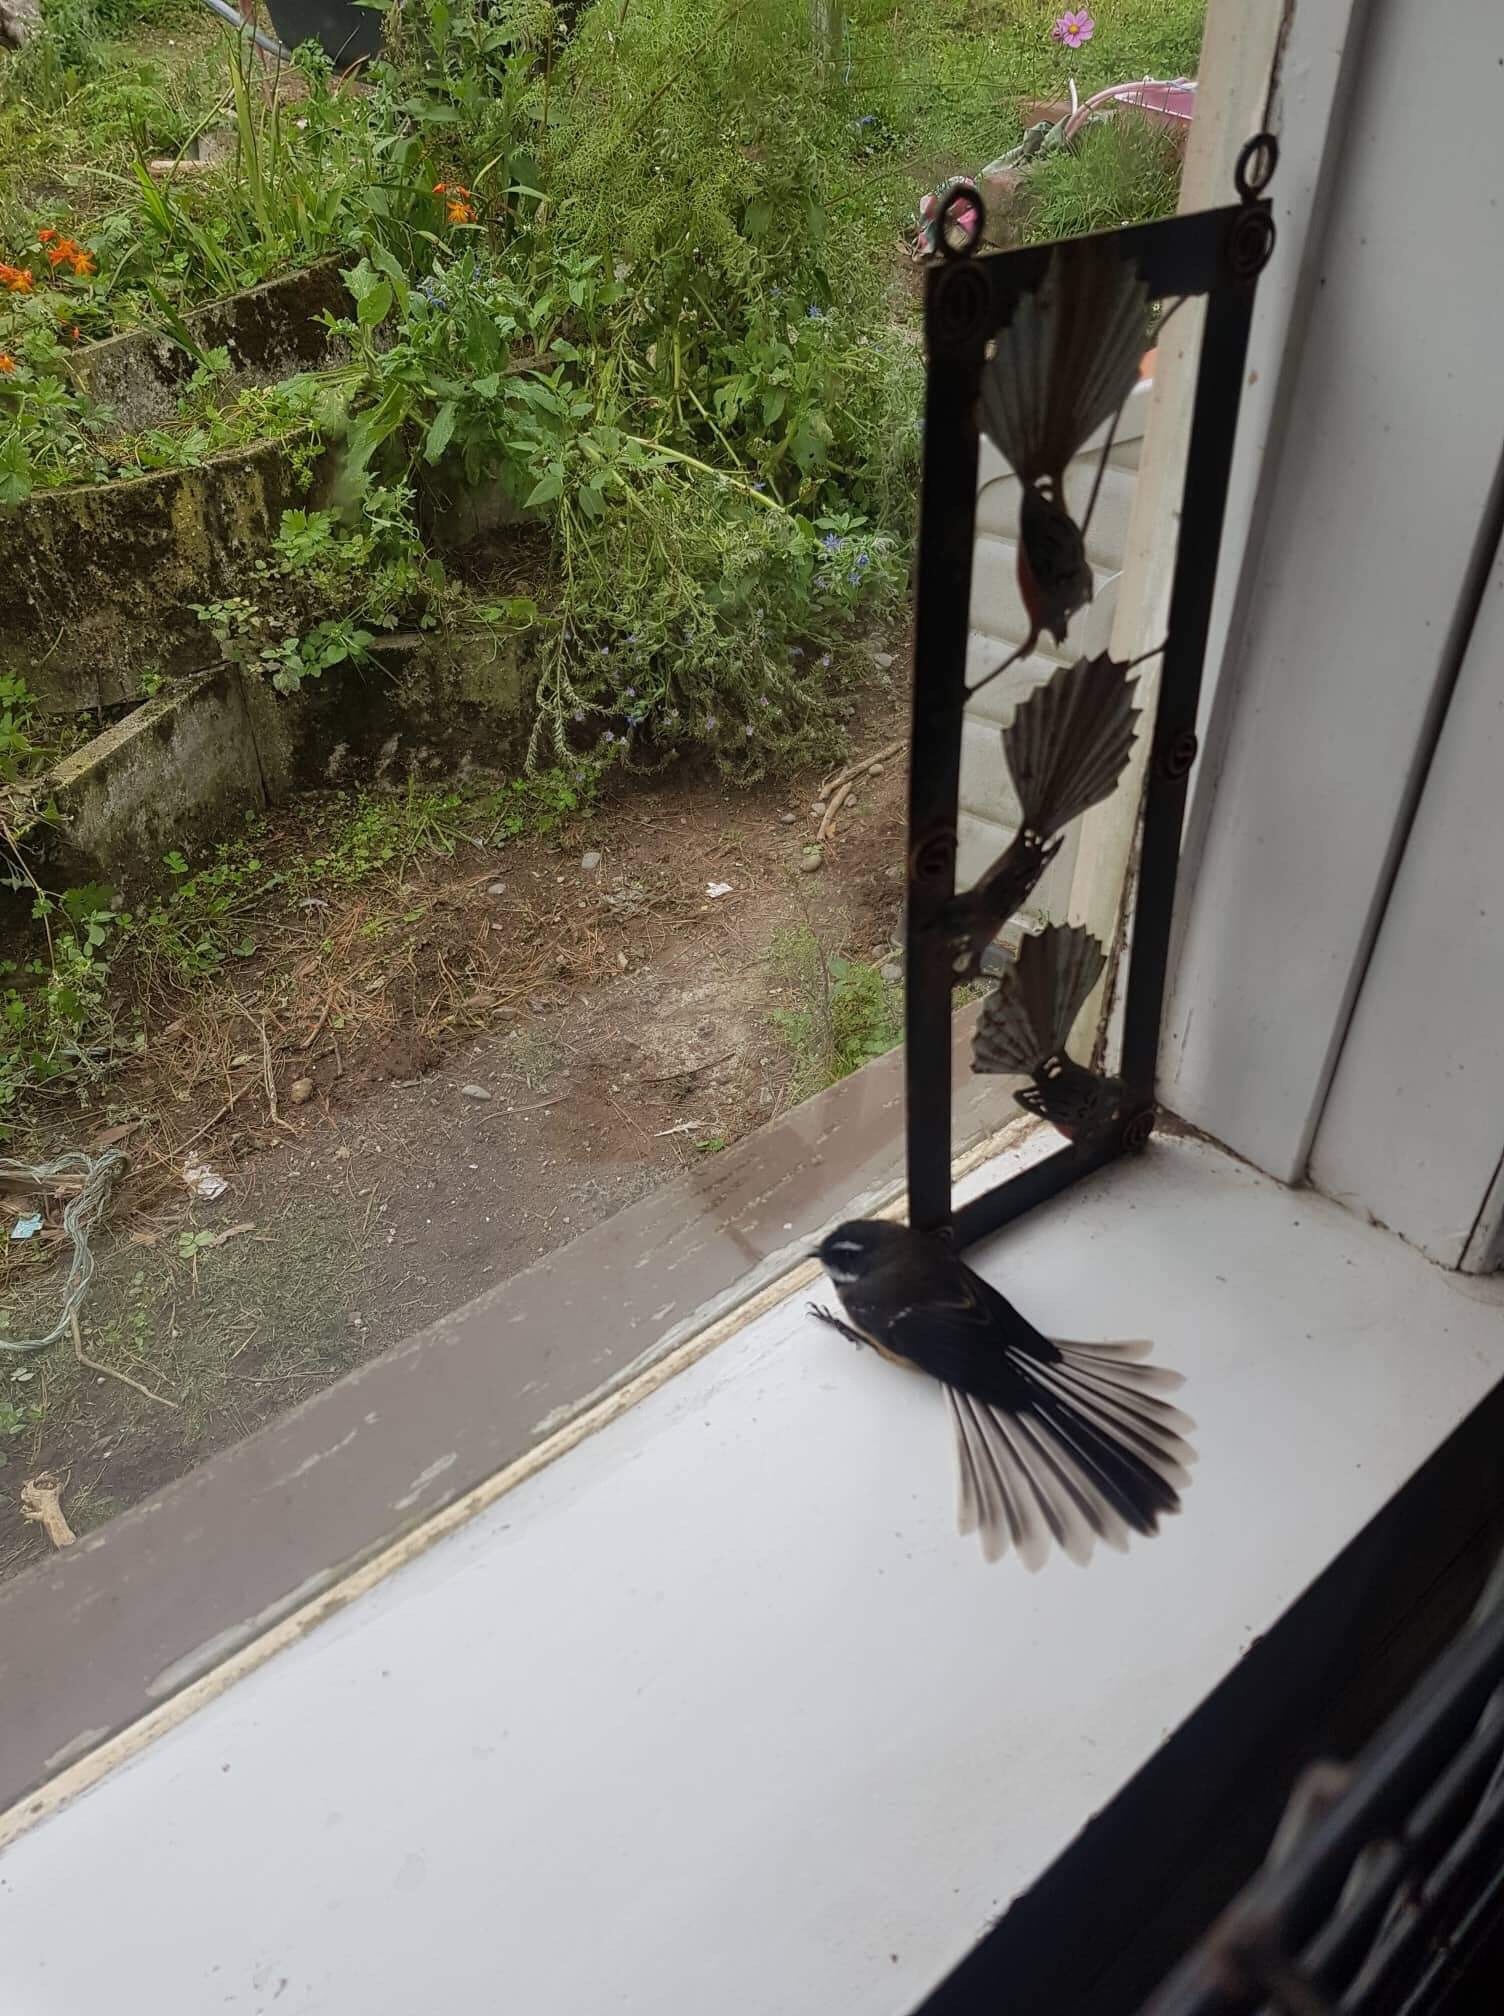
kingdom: Animalia
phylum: Chordata
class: Aves
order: Passeriformes
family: Rhipiduridae
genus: Rhipidura
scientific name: Rhipidura fuliginosa
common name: New zealand fantail
